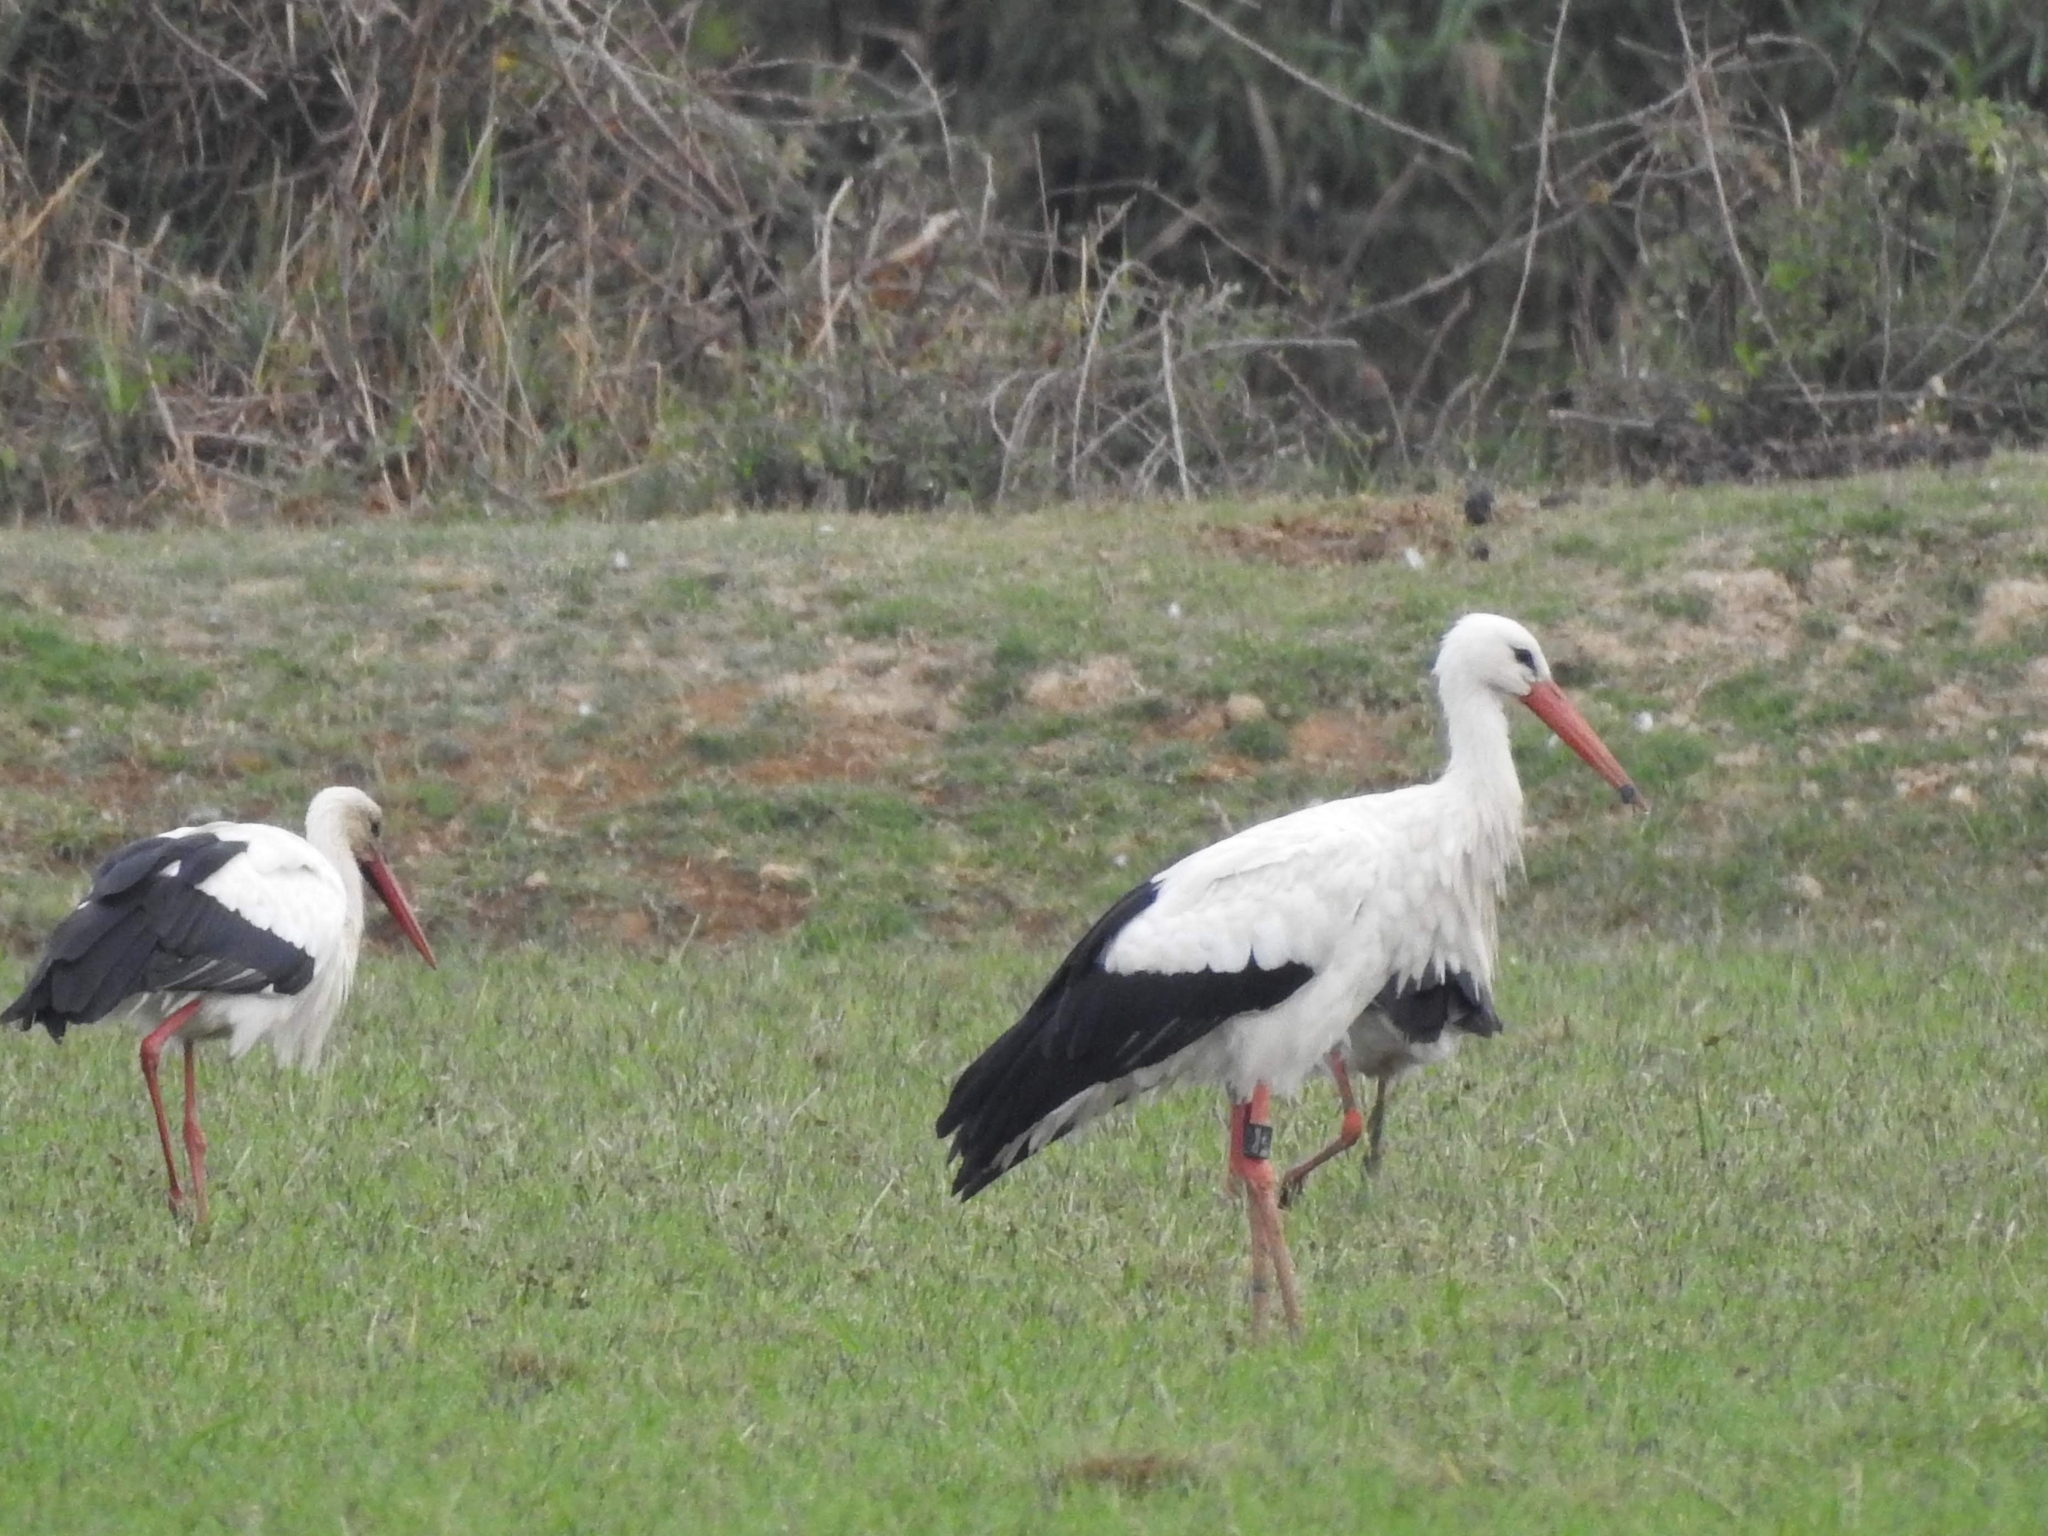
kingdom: Animalia
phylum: Chordata
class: Aves
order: Ciconiiformes
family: Ciconiidae
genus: Ciconia
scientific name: Ciconia ciconia
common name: White stork
